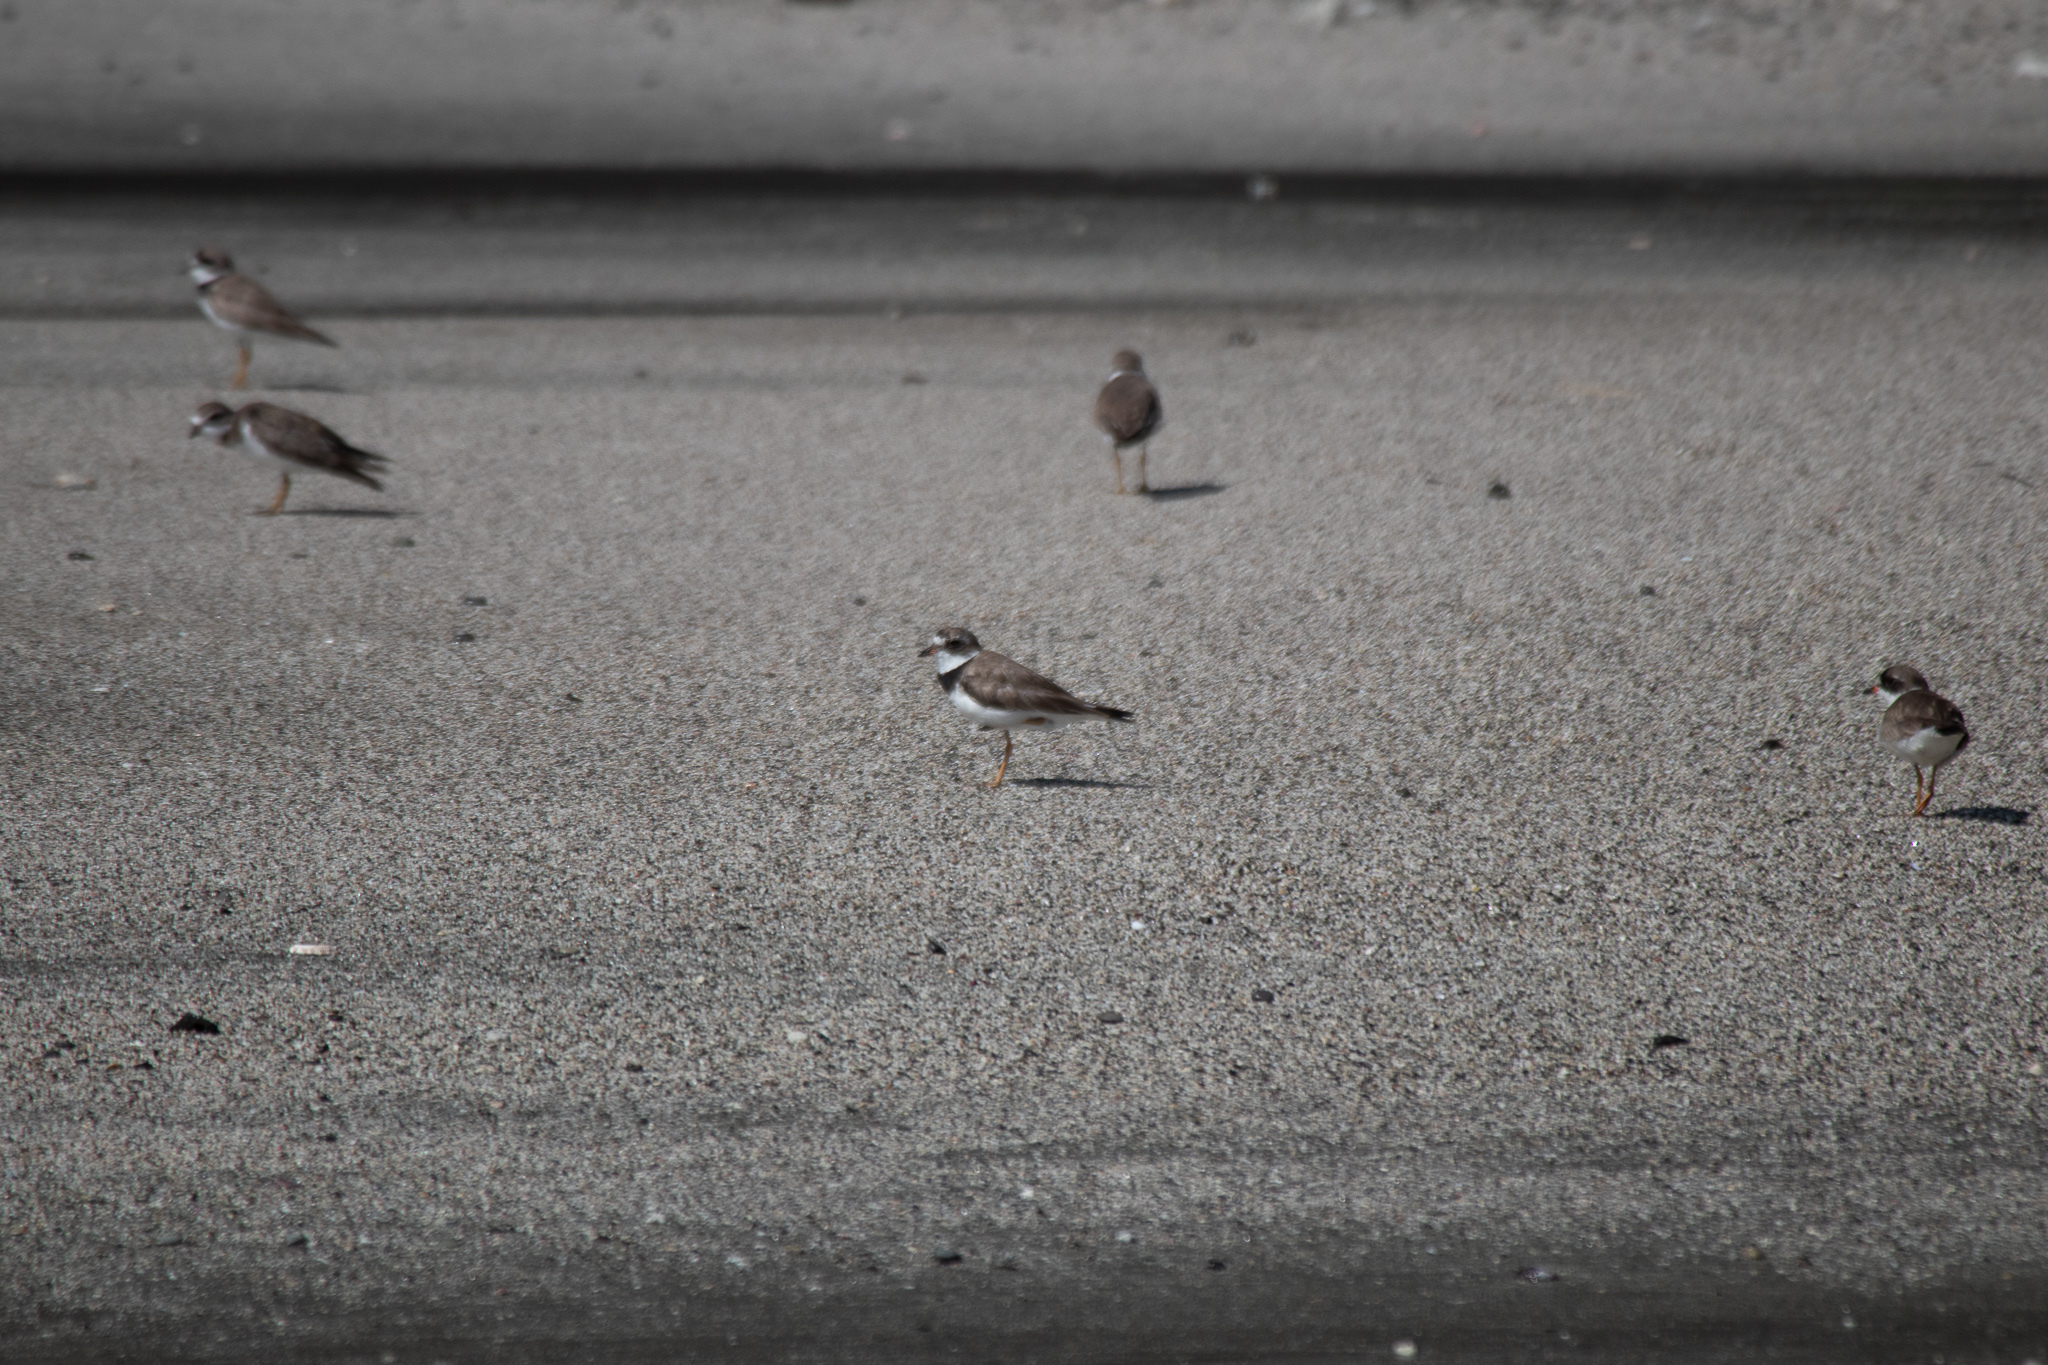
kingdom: Animalia
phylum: Chordata
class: Aves
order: Charadriiformes
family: Charadriidae
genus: Charadrius
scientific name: Charadrius semipalmatus
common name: Semipalmated plover
